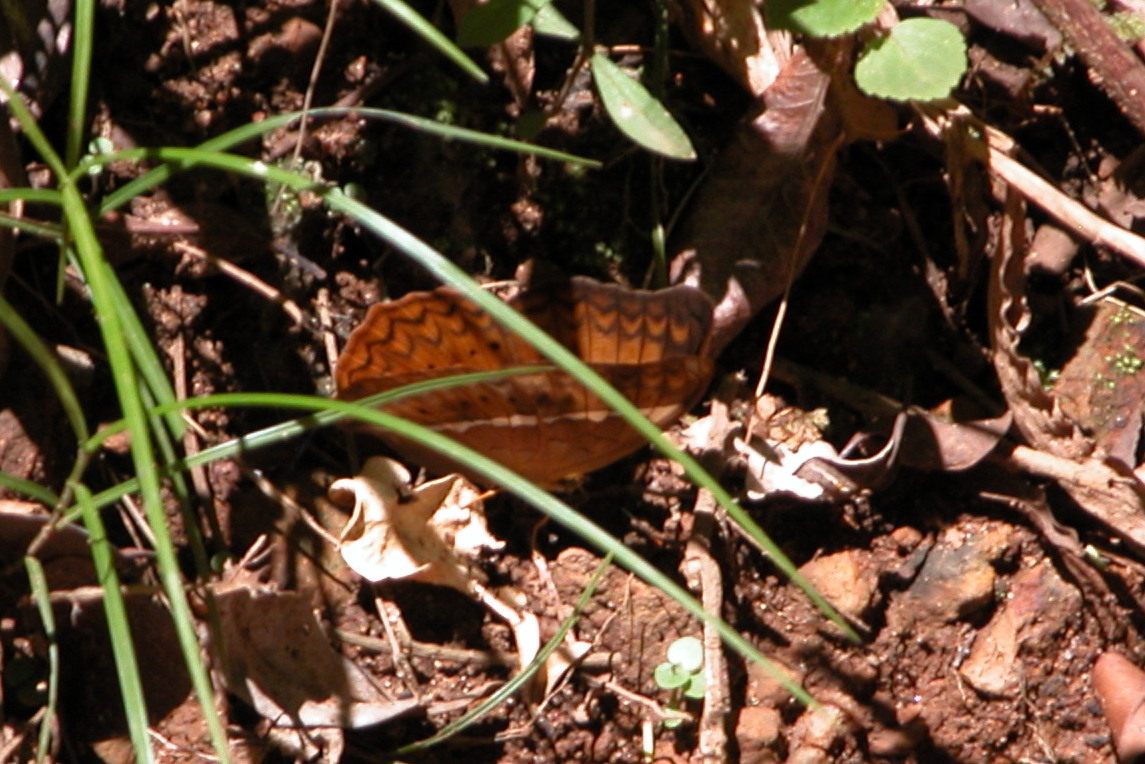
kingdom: Animalia
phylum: Arthropoda
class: Insecta
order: Lepidoptera
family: Nymphalidae
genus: Cirrochroa
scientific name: Cirrochroa thais
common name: Tamil yeoman
